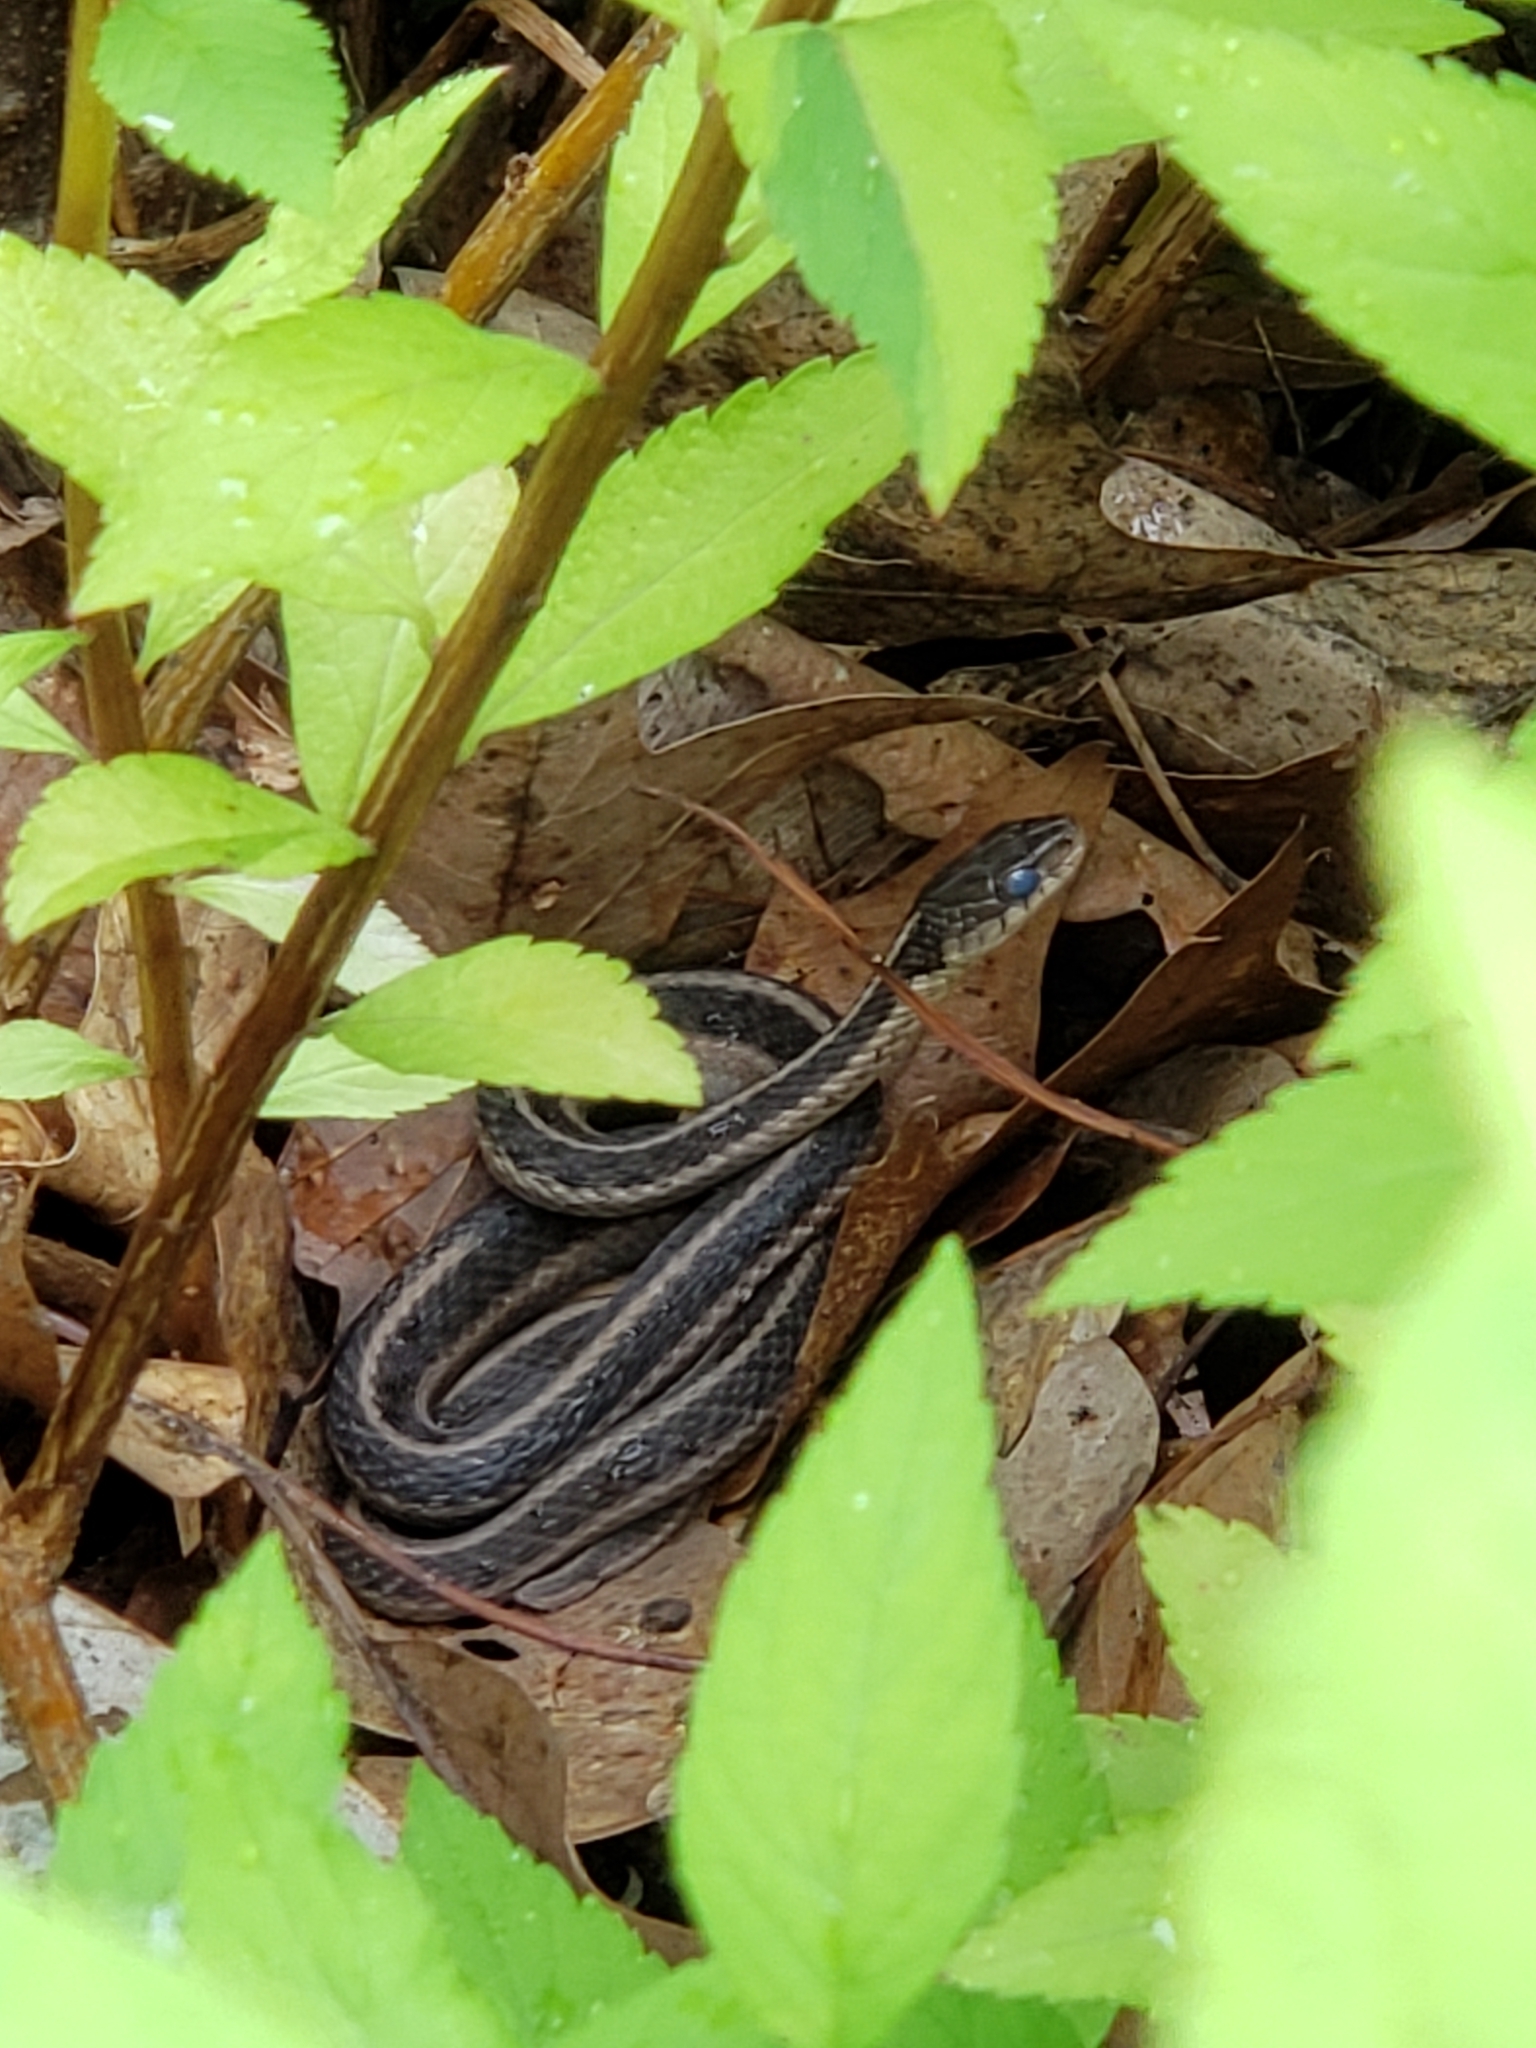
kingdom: Animalia
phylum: Chordata
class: Squamata
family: Colubridae
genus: Thamnophis
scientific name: Thamnophis sirtalis
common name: Common garter snake
